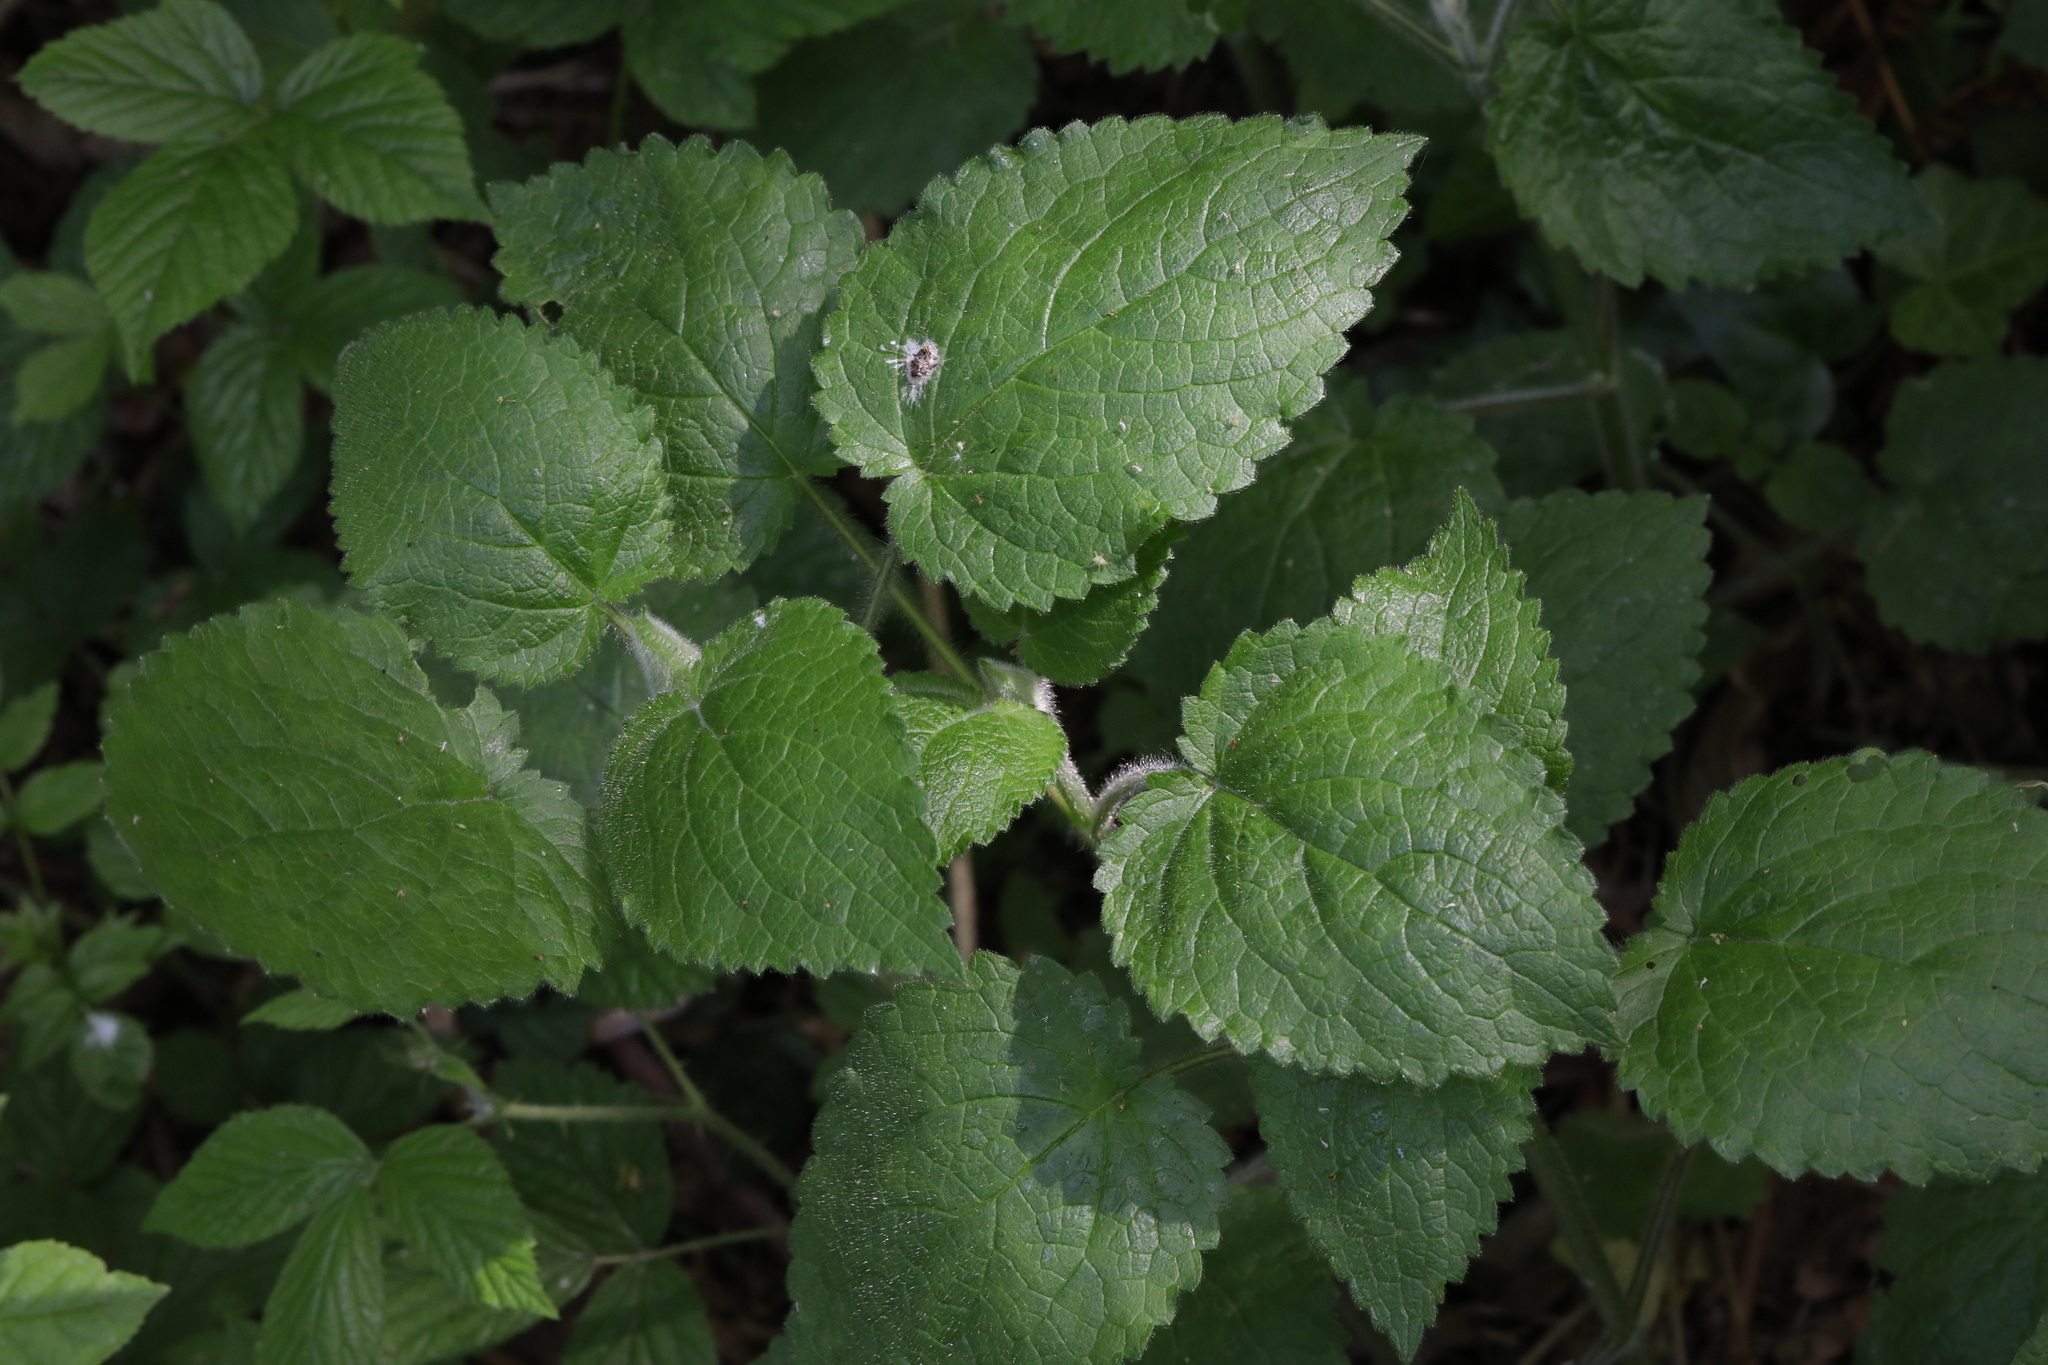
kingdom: Plantae
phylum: Tracheophyta
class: Magnoliopsida
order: Lamiales
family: Lamiaceae
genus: Stachys
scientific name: Stachys sylvatica
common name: Hedge woundwort
